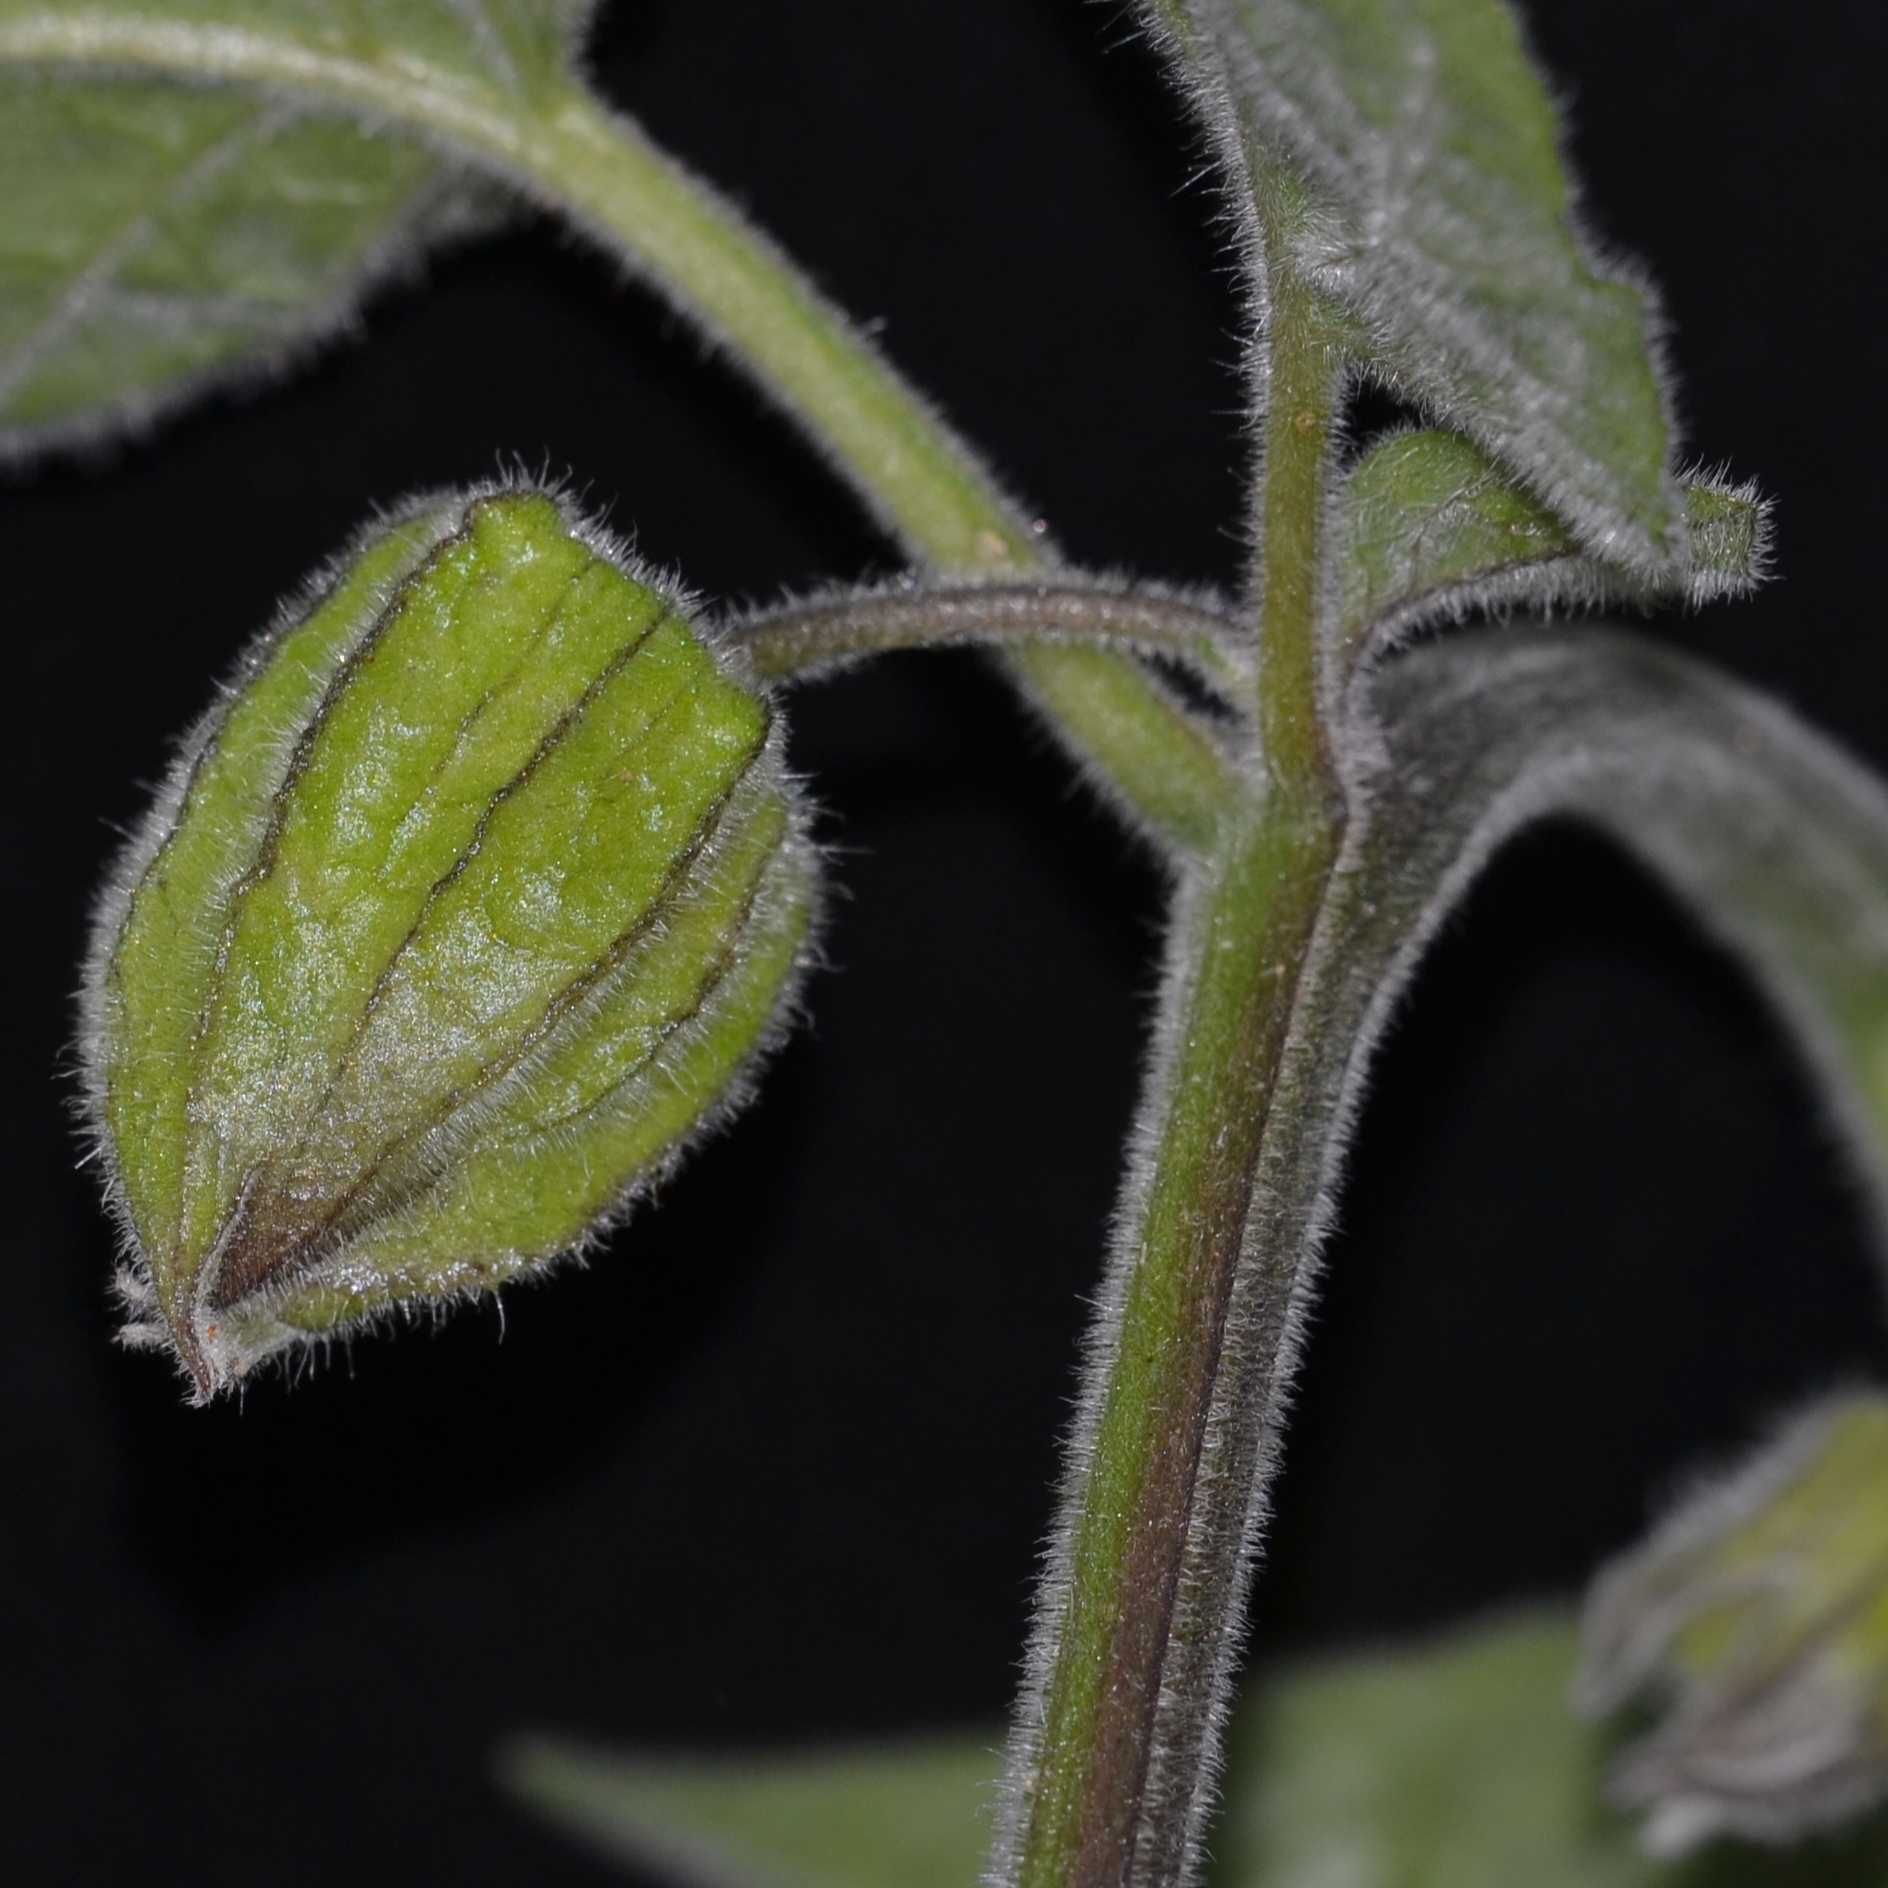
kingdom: Plantae
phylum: Tracheophyta
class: Magnoliopsida
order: Solanales
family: Solanaceae
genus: Physalis
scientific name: Physalis peruviana
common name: Cape-gooseberry
